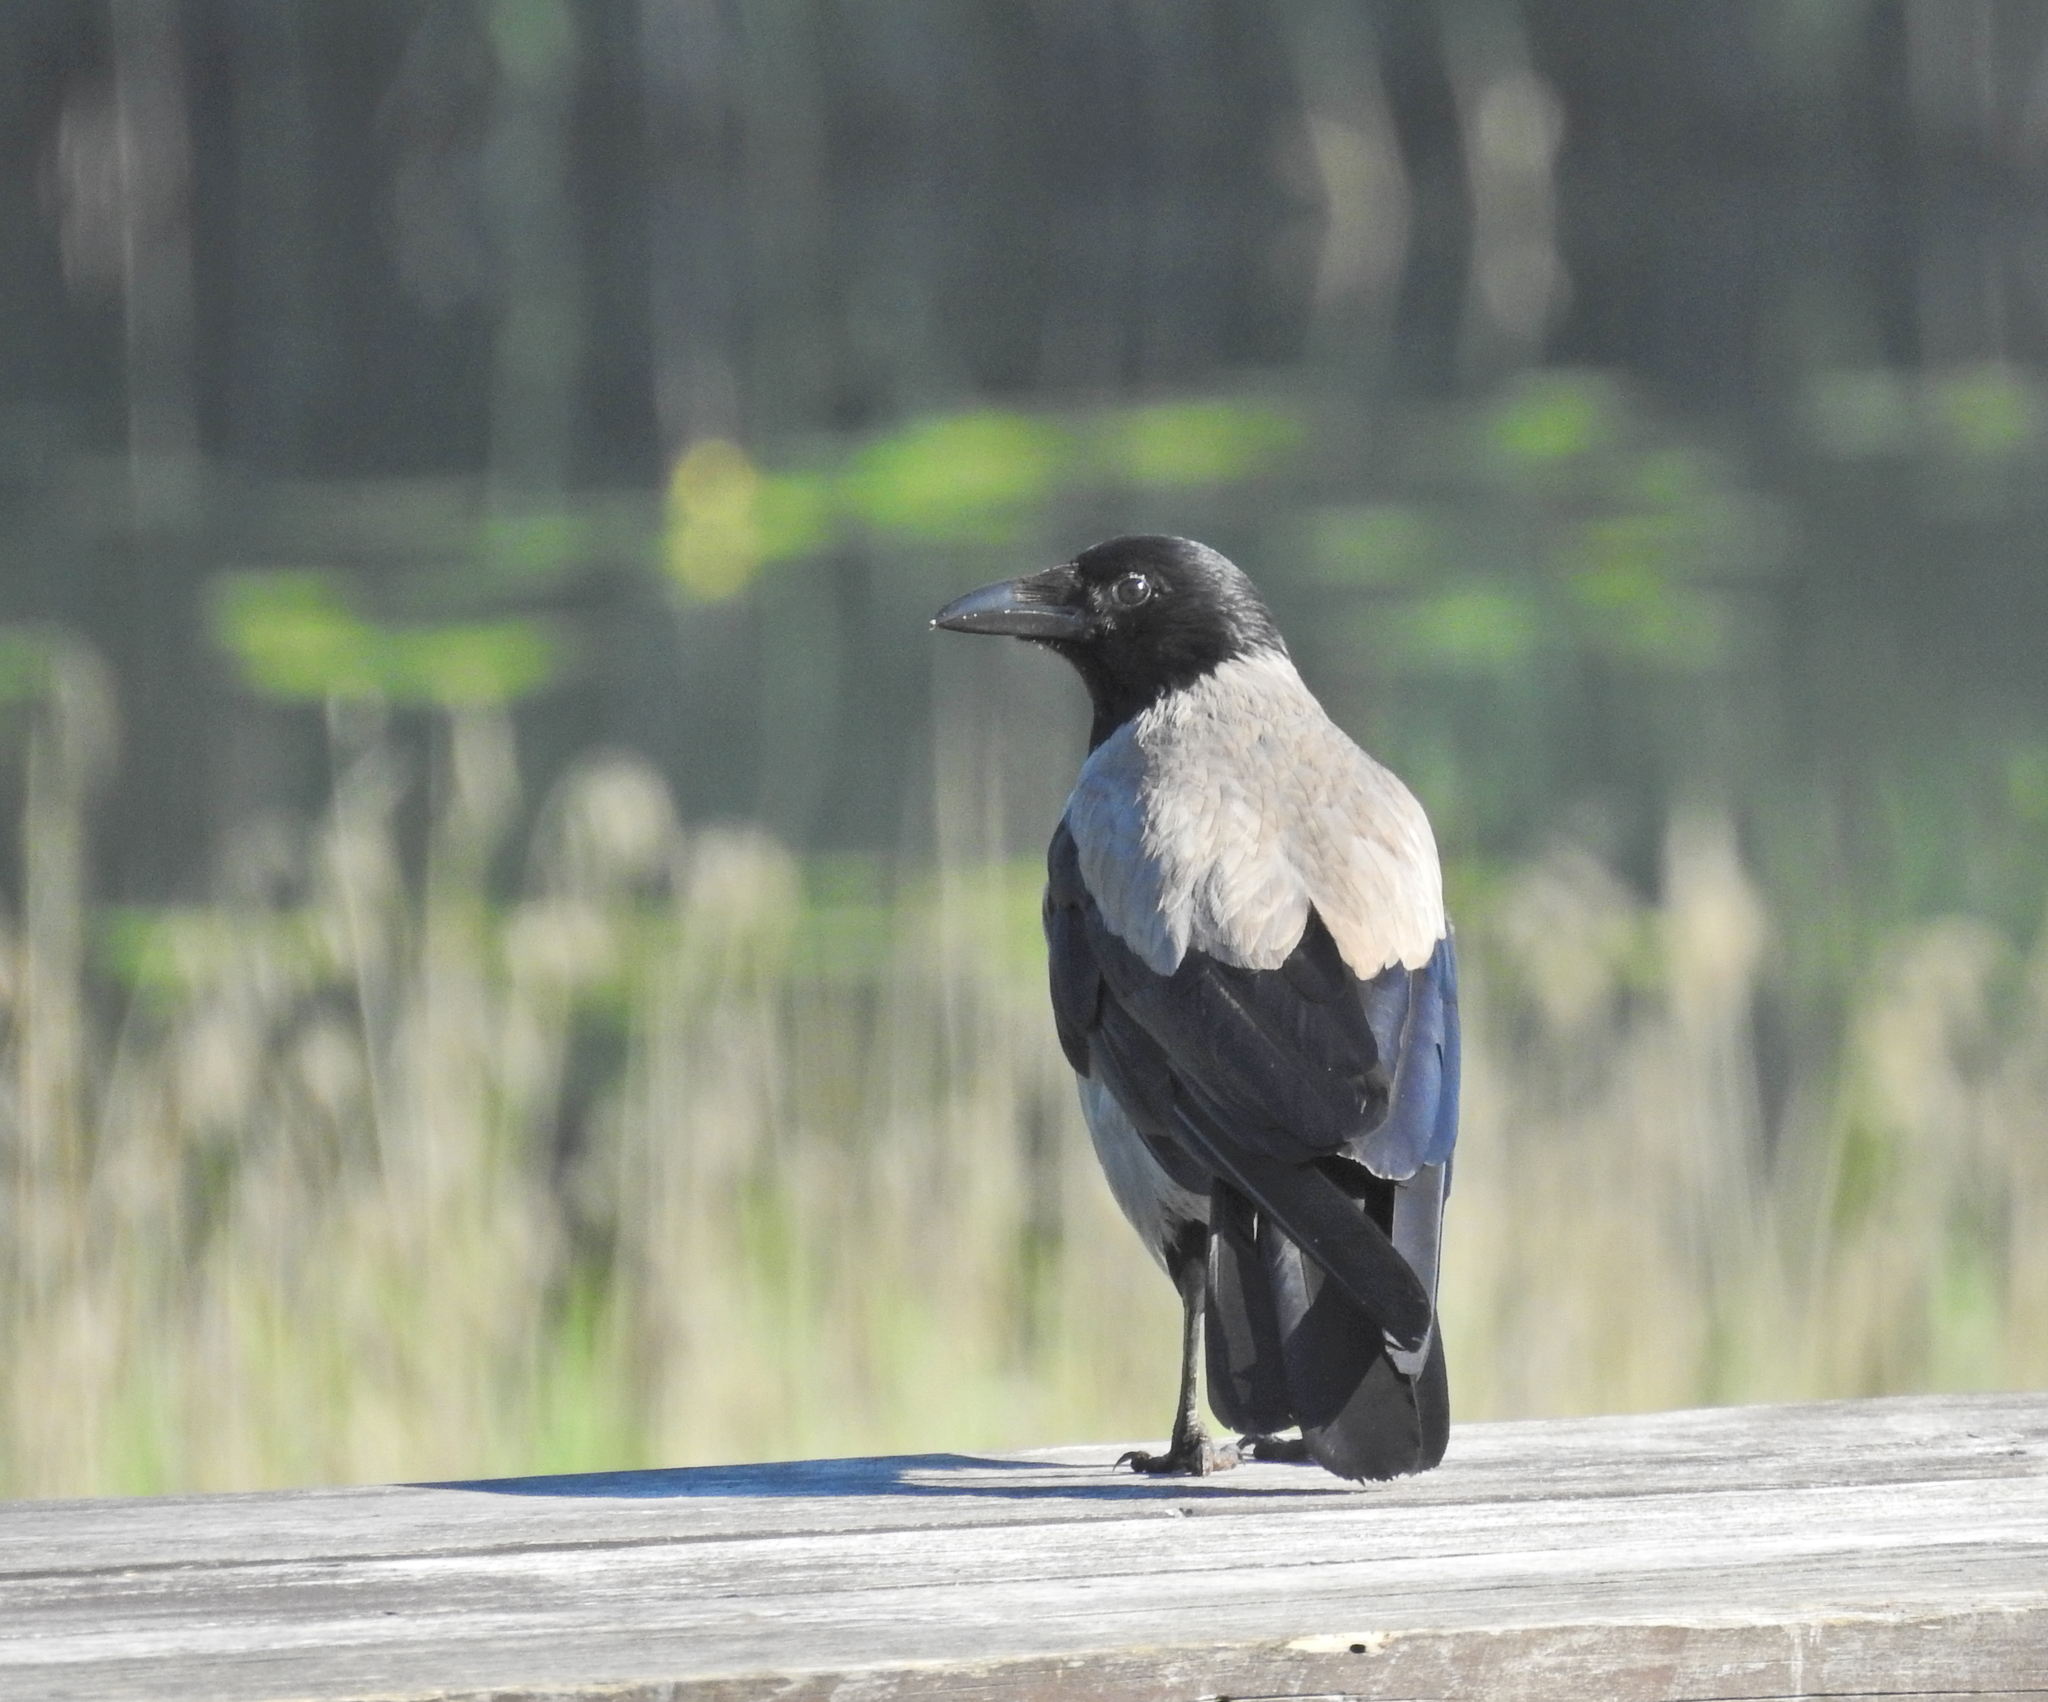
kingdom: Animalia
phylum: Chordata
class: Aves
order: Passeriformes
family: Corvidae
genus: Corvus
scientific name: Corvus cornix
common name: Hooded crow
